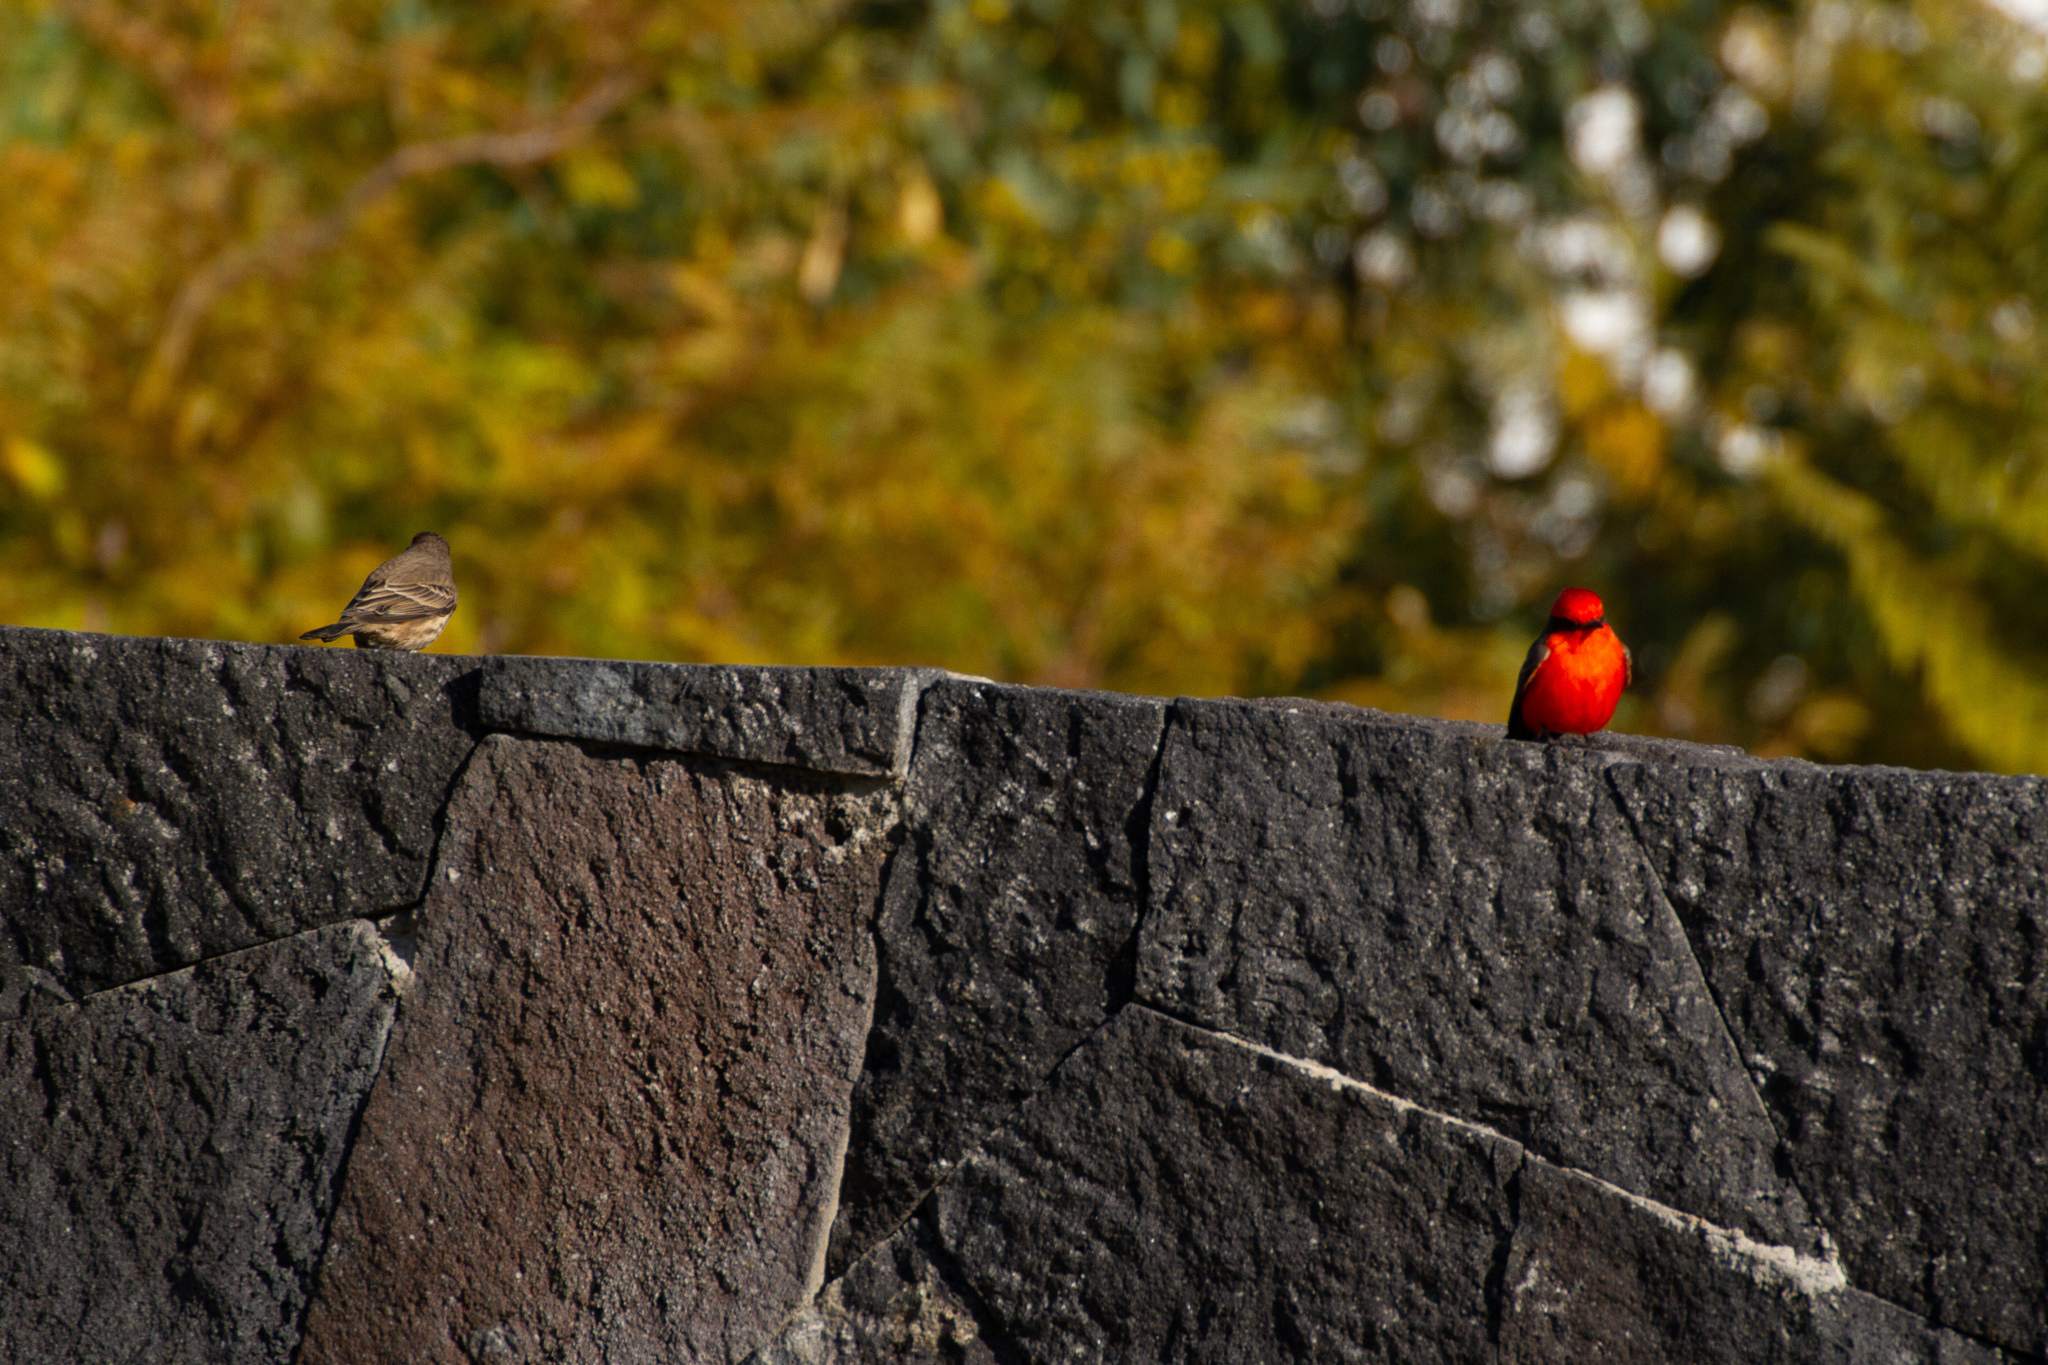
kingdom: Animalia
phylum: Chordata
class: Aves
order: Passeriformes
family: Tyrannidae
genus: Pyrocephalus
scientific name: Pyrocephalus rubinus
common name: Vermilion flycatcher
